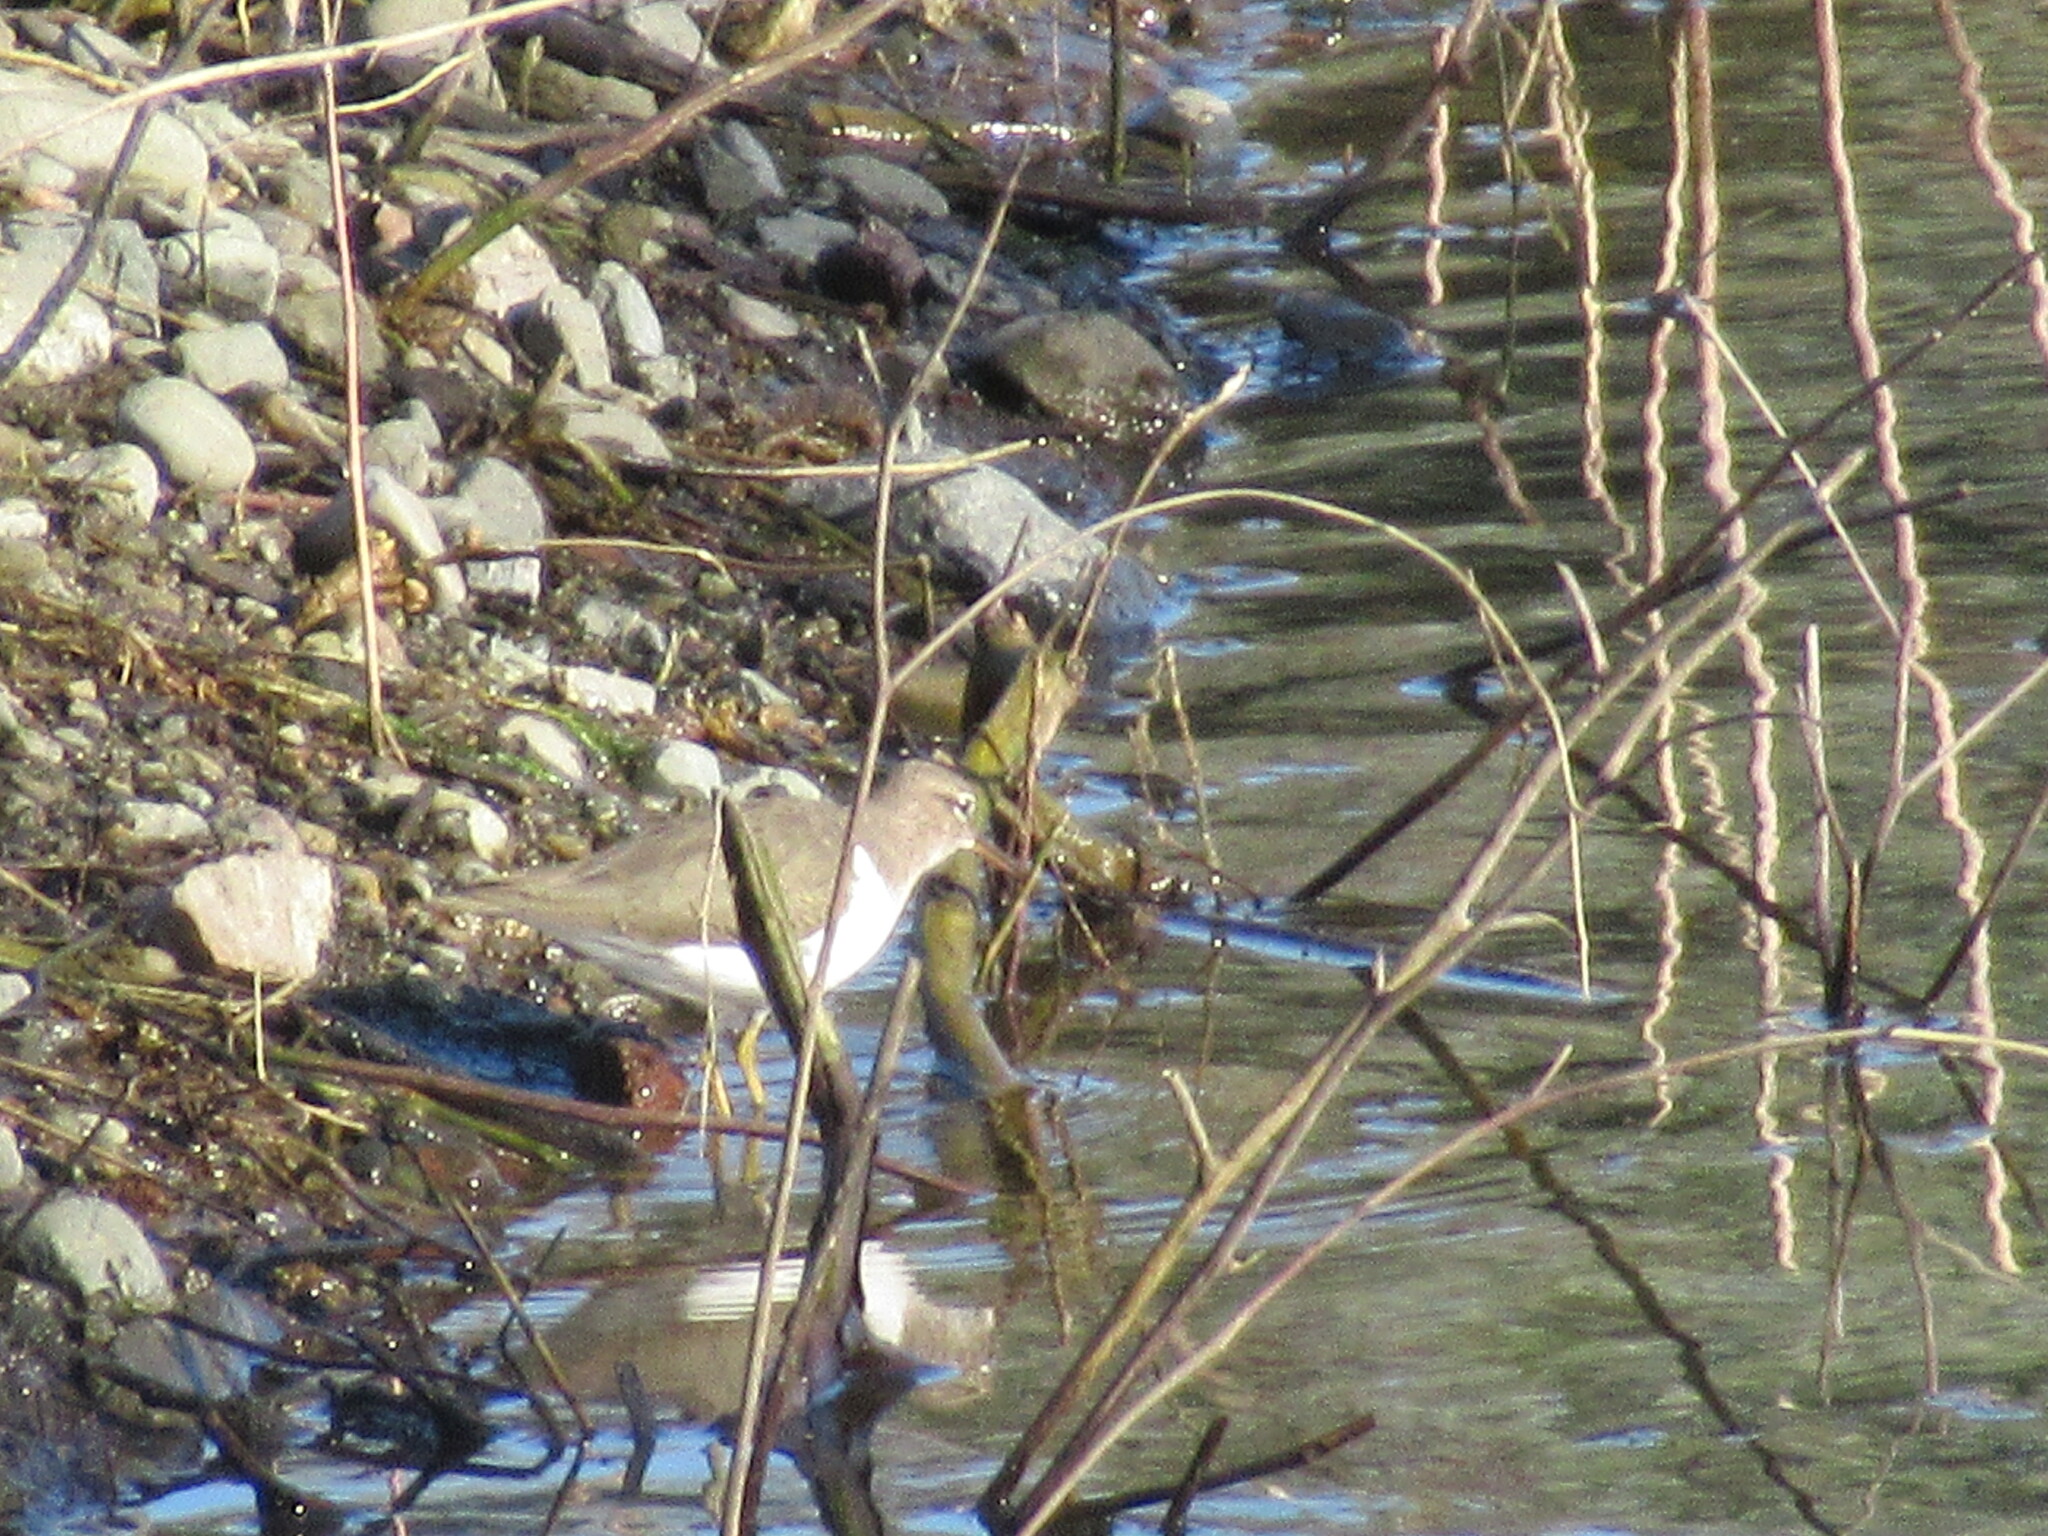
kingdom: Animalia
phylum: Chordata
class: Aves
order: Charadriiformes
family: Scolopacidae
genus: Actitis
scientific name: Actitis macularius
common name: Spotted sandpiper
